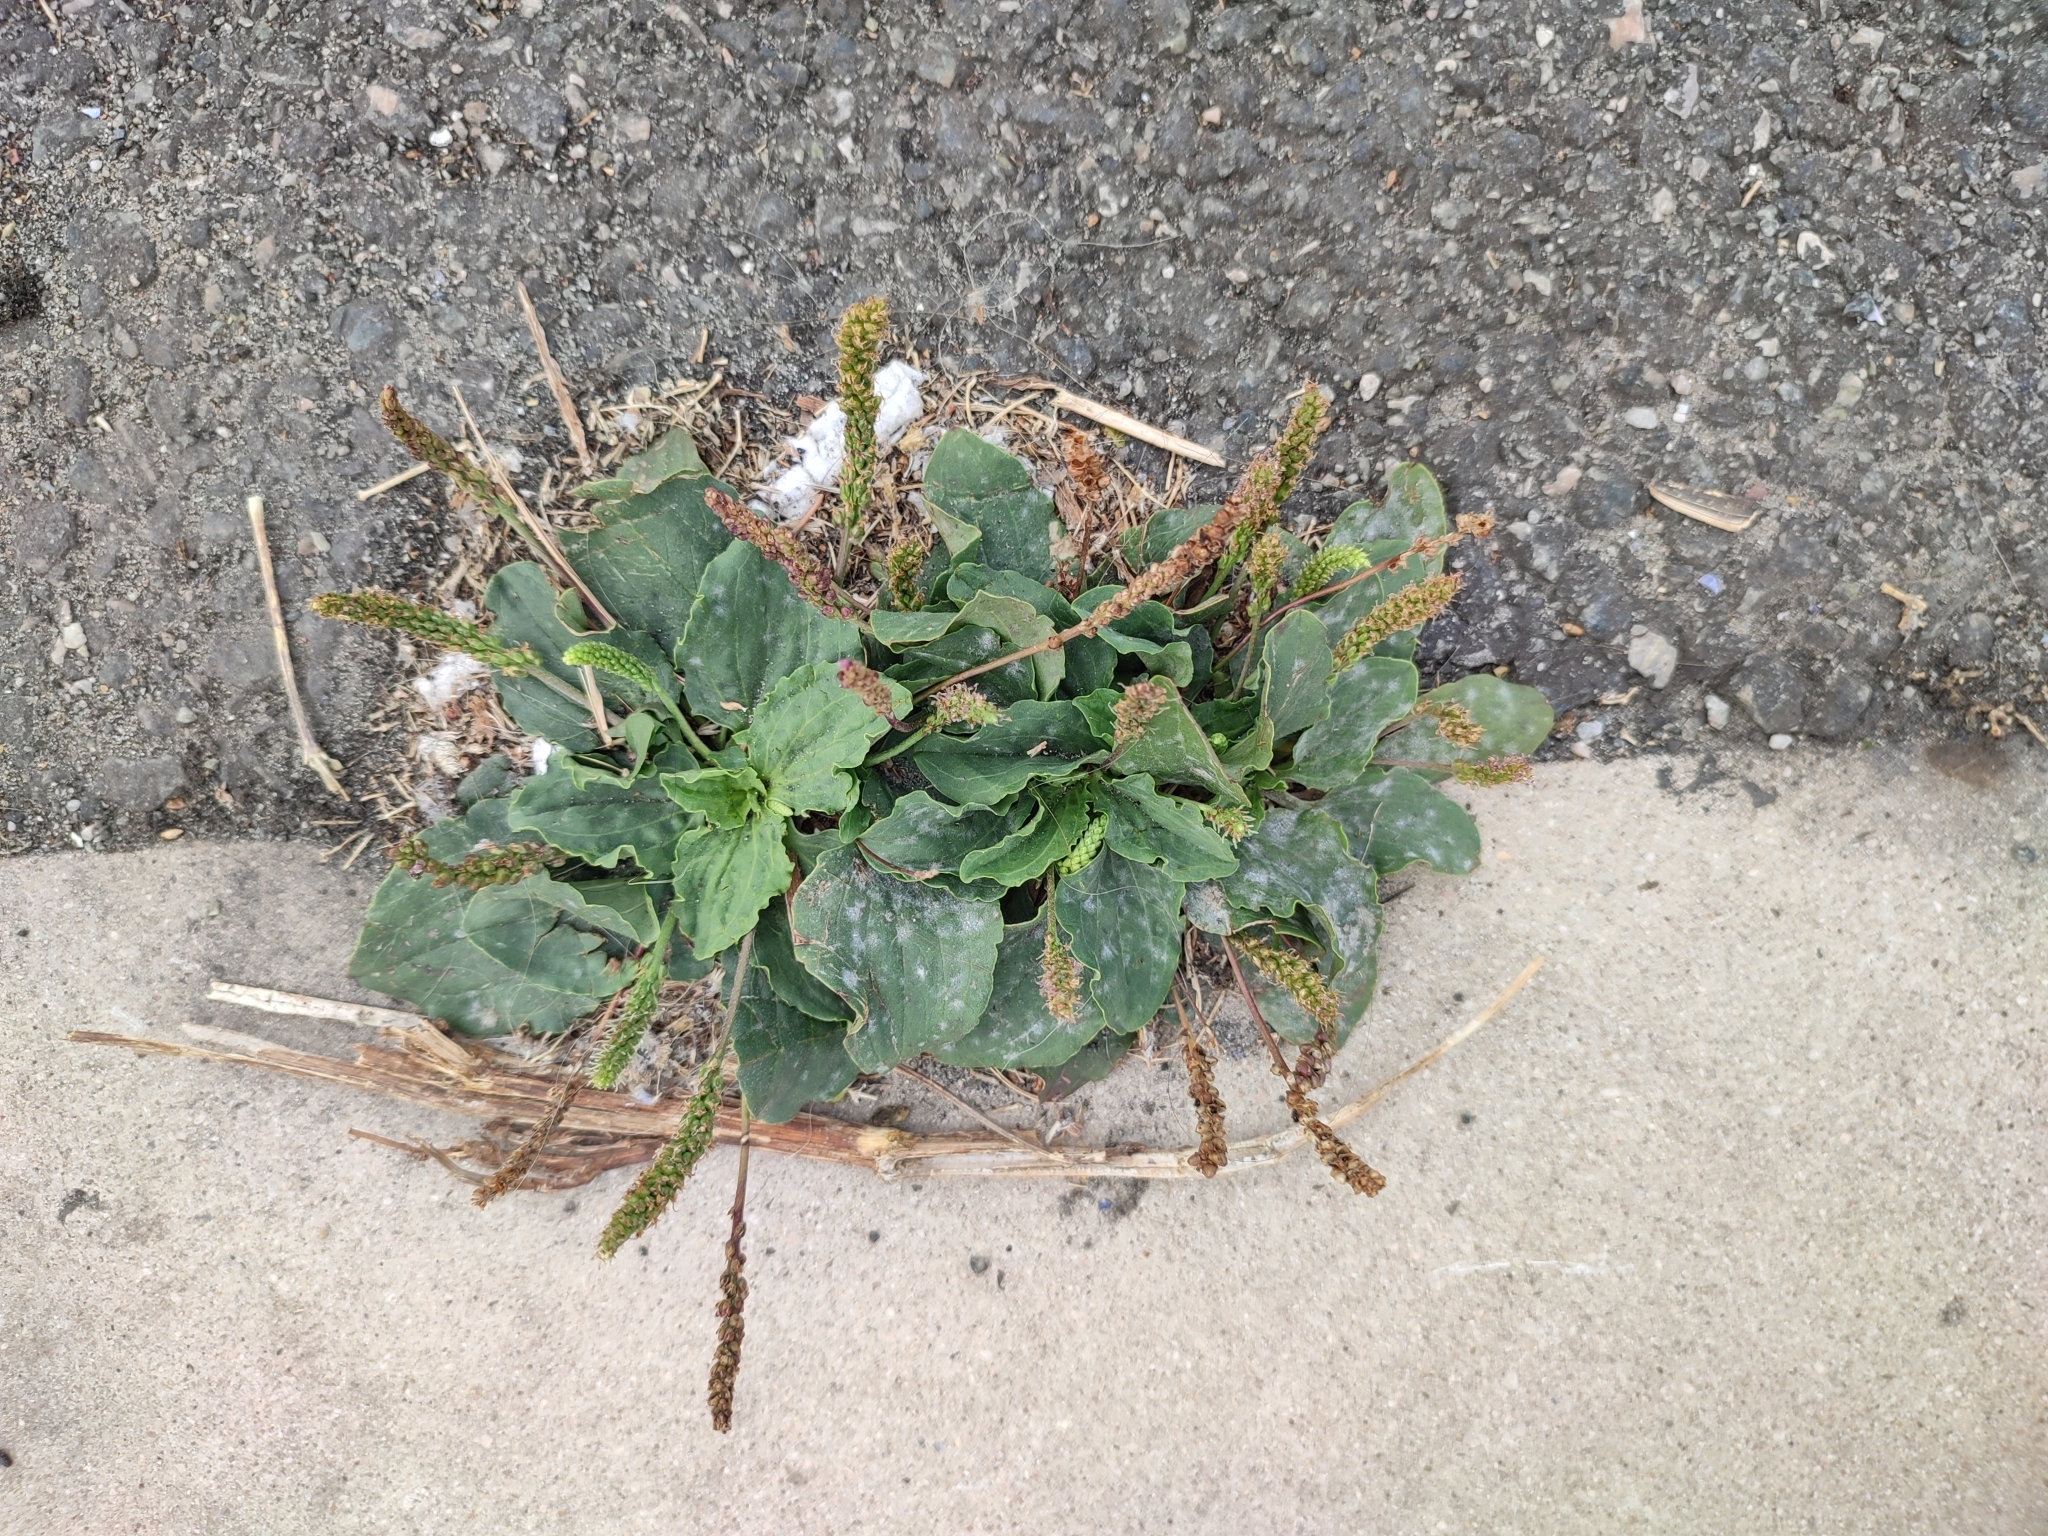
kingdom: Plantae
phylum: Tracheophyta
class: Magnoliopsida
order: Lamiales
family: Plantaginaceae
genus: Plantago
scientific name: Plantago major
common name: Common plantain
